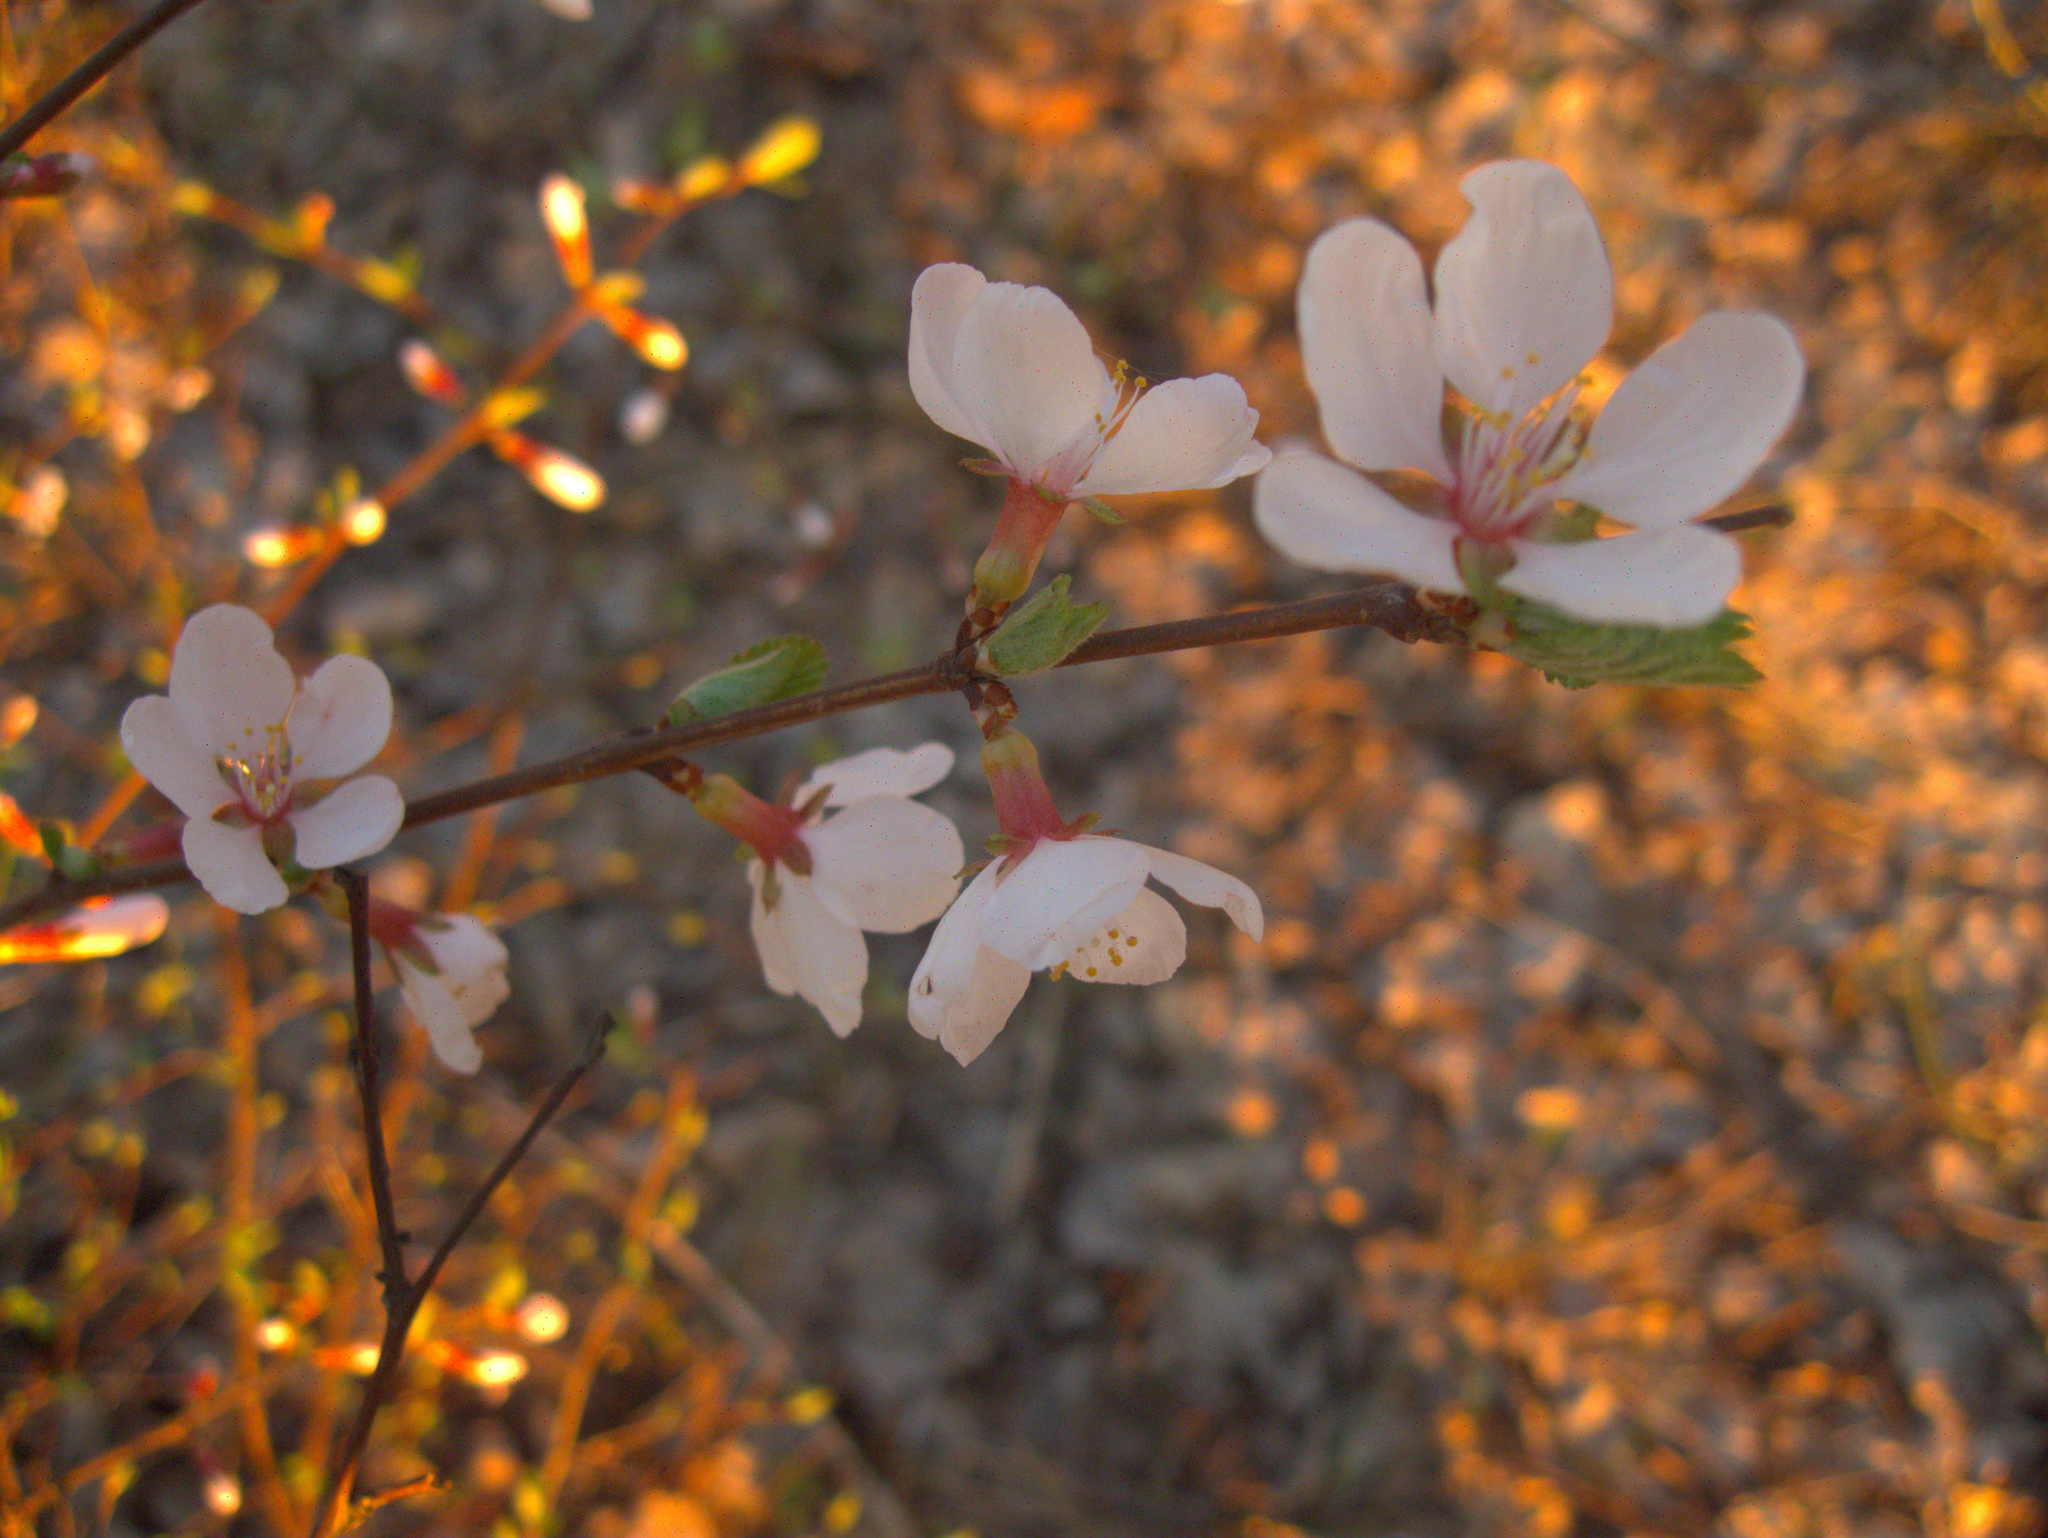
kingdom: Plantae
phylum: Tracheophyta
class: Magnoliopsida
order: Rosales
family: Rosaceae
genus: Prunus
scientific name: Prunus tomentosa
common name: Nanking cherry
